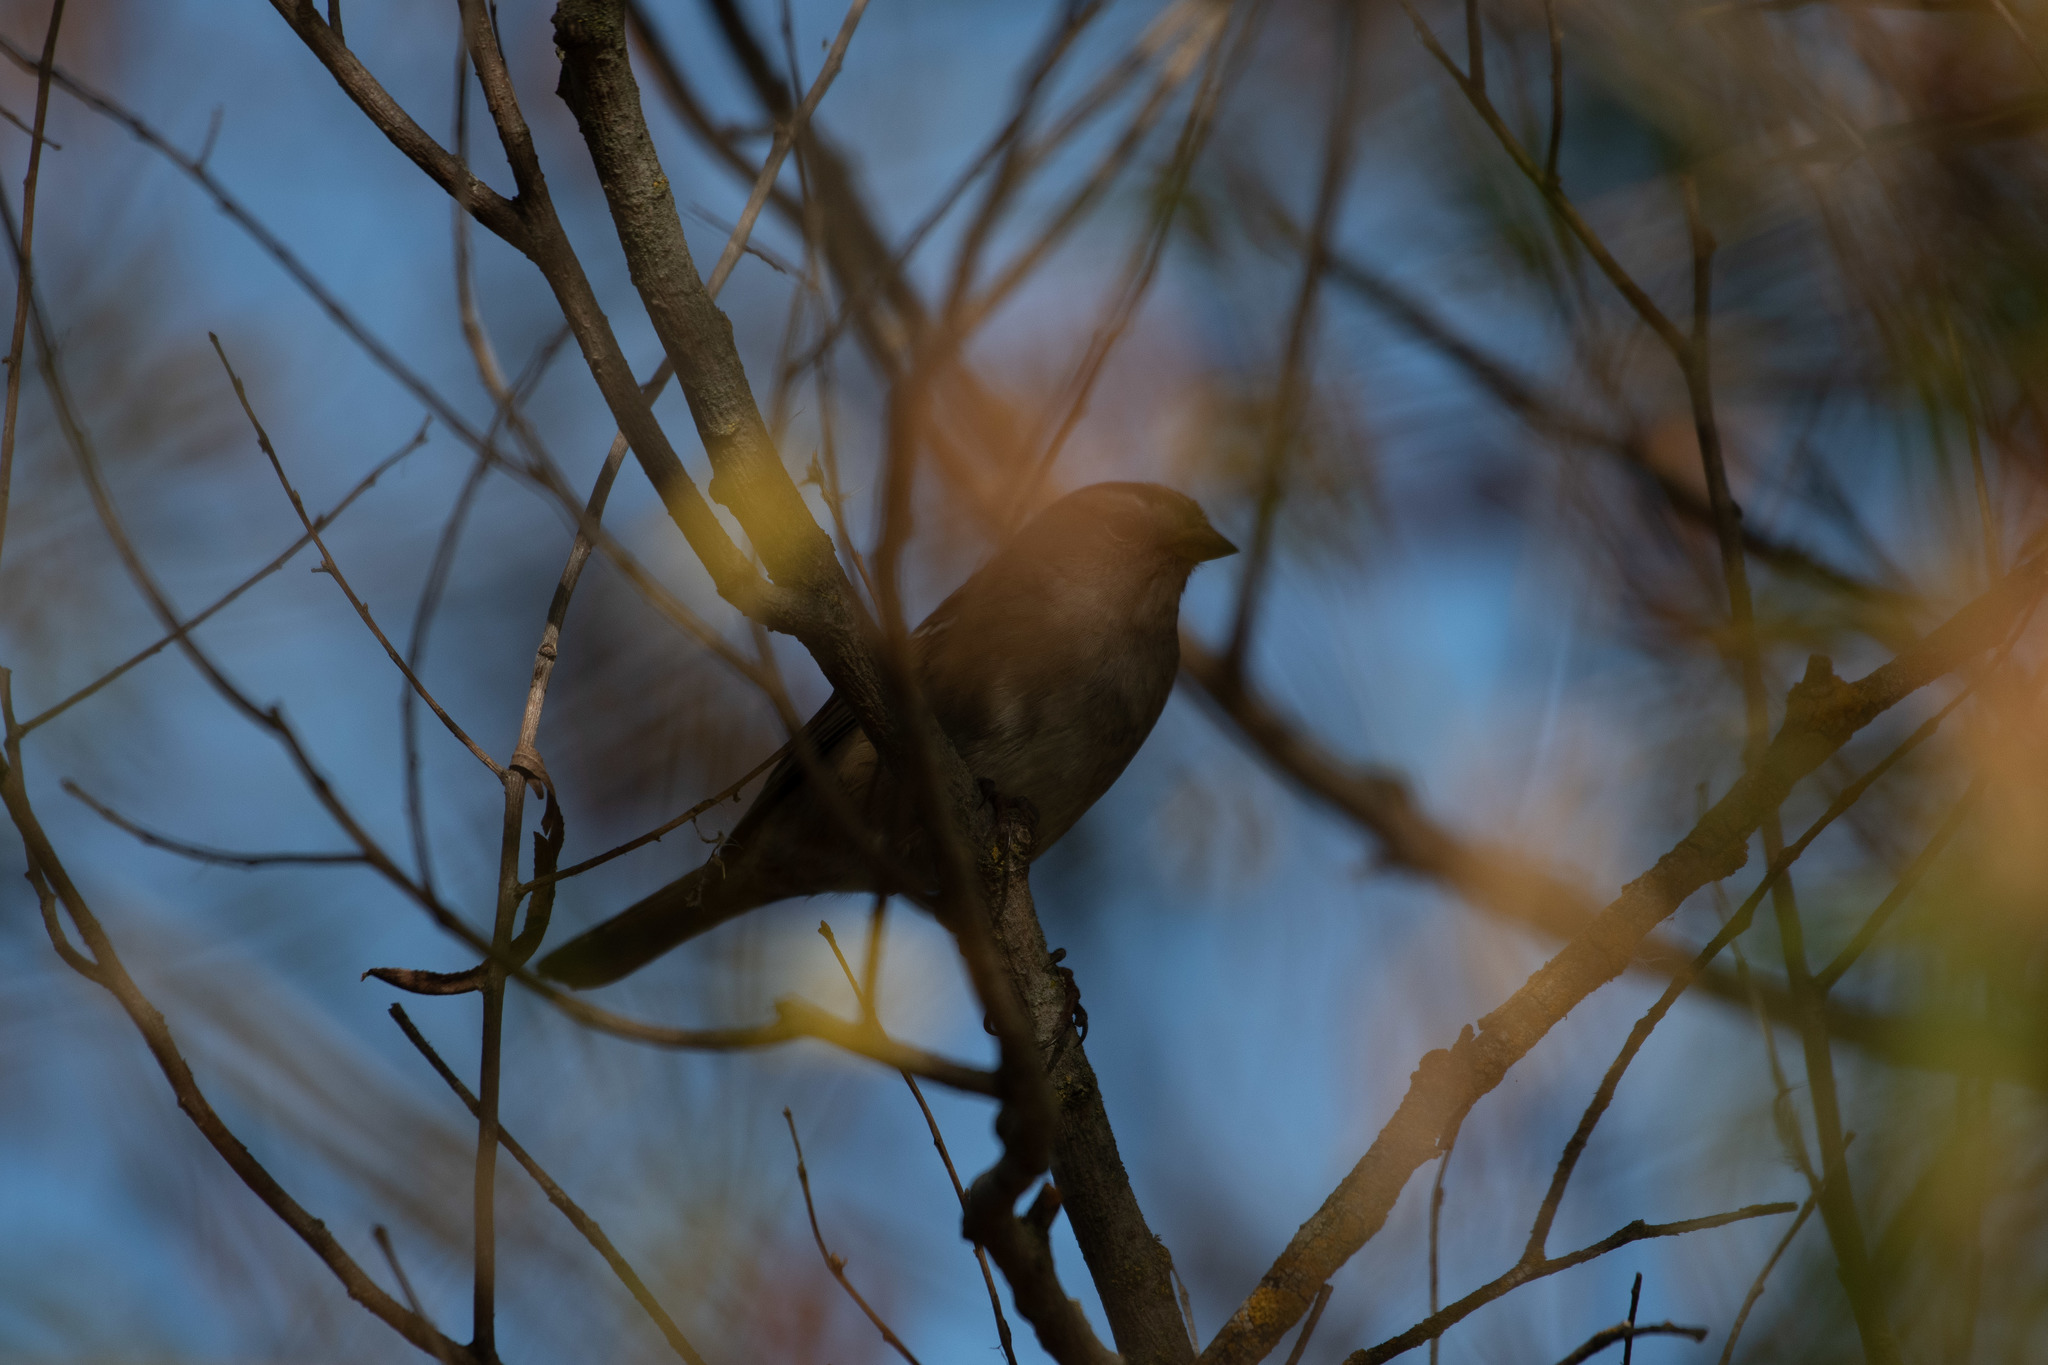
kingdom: Animalia
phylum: Chordata
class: Aves
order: Passeriformes
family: Passerellidae
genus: Zonotrichia
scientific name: Zonotrichia leucophrys
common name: White-crowned sparrow
